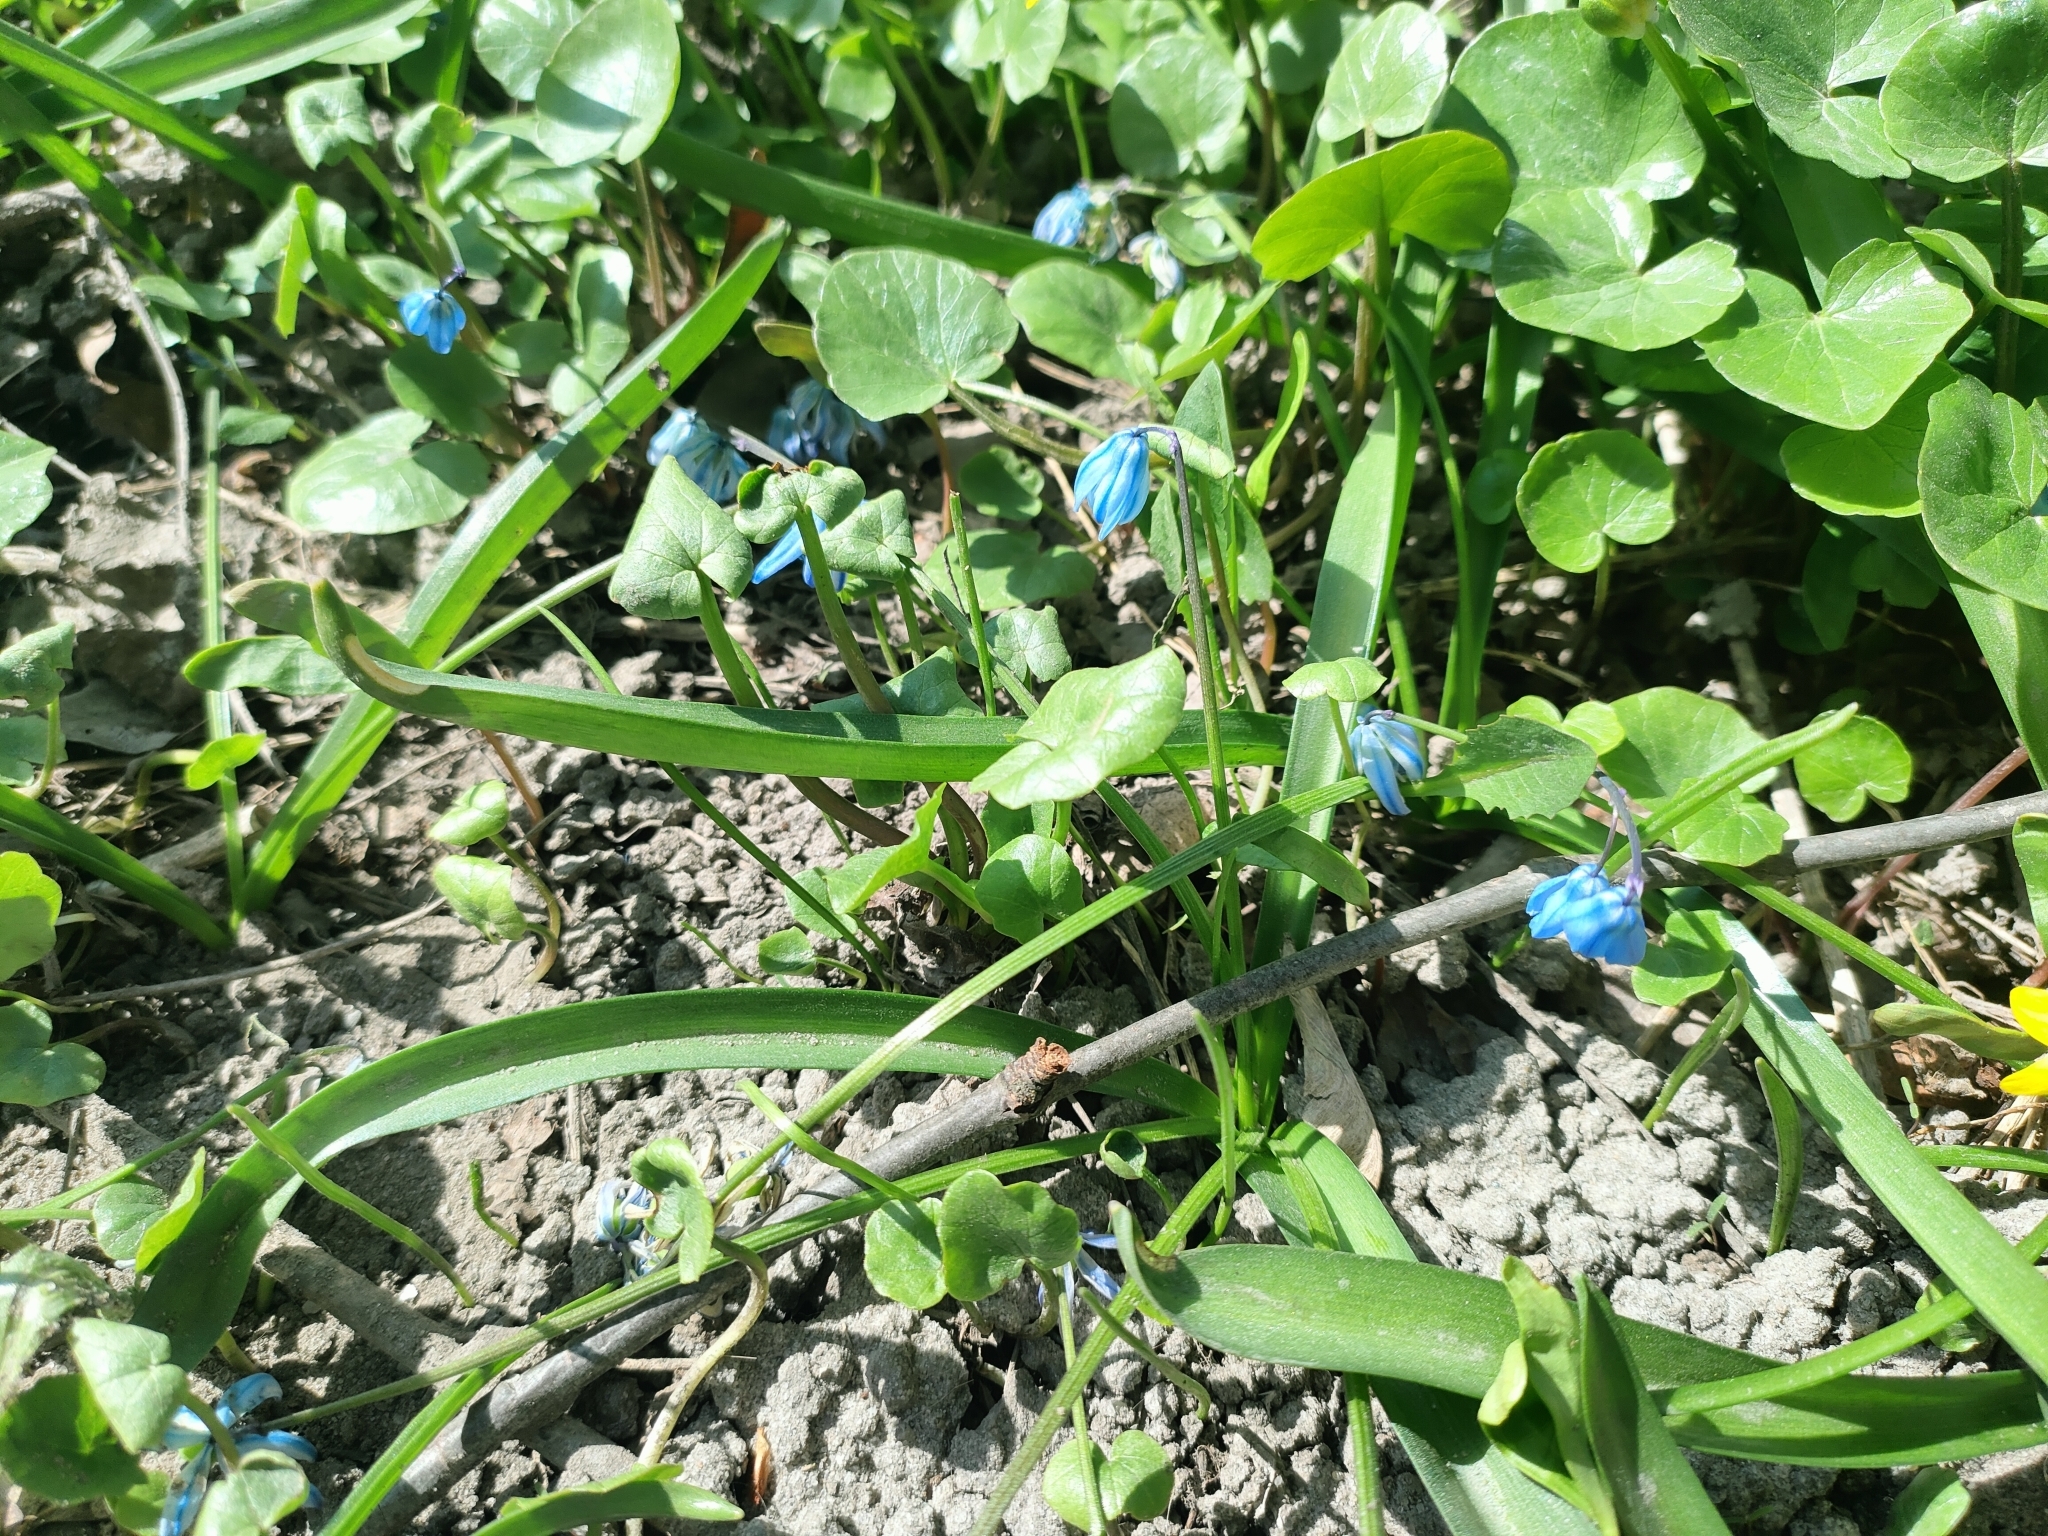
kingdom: Plantae
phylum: Tracheophyta
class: Liliopsida
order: Asparagales
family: Asparagaceae
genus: Scilla
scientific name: Scilla siberica
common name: Siberian squill
